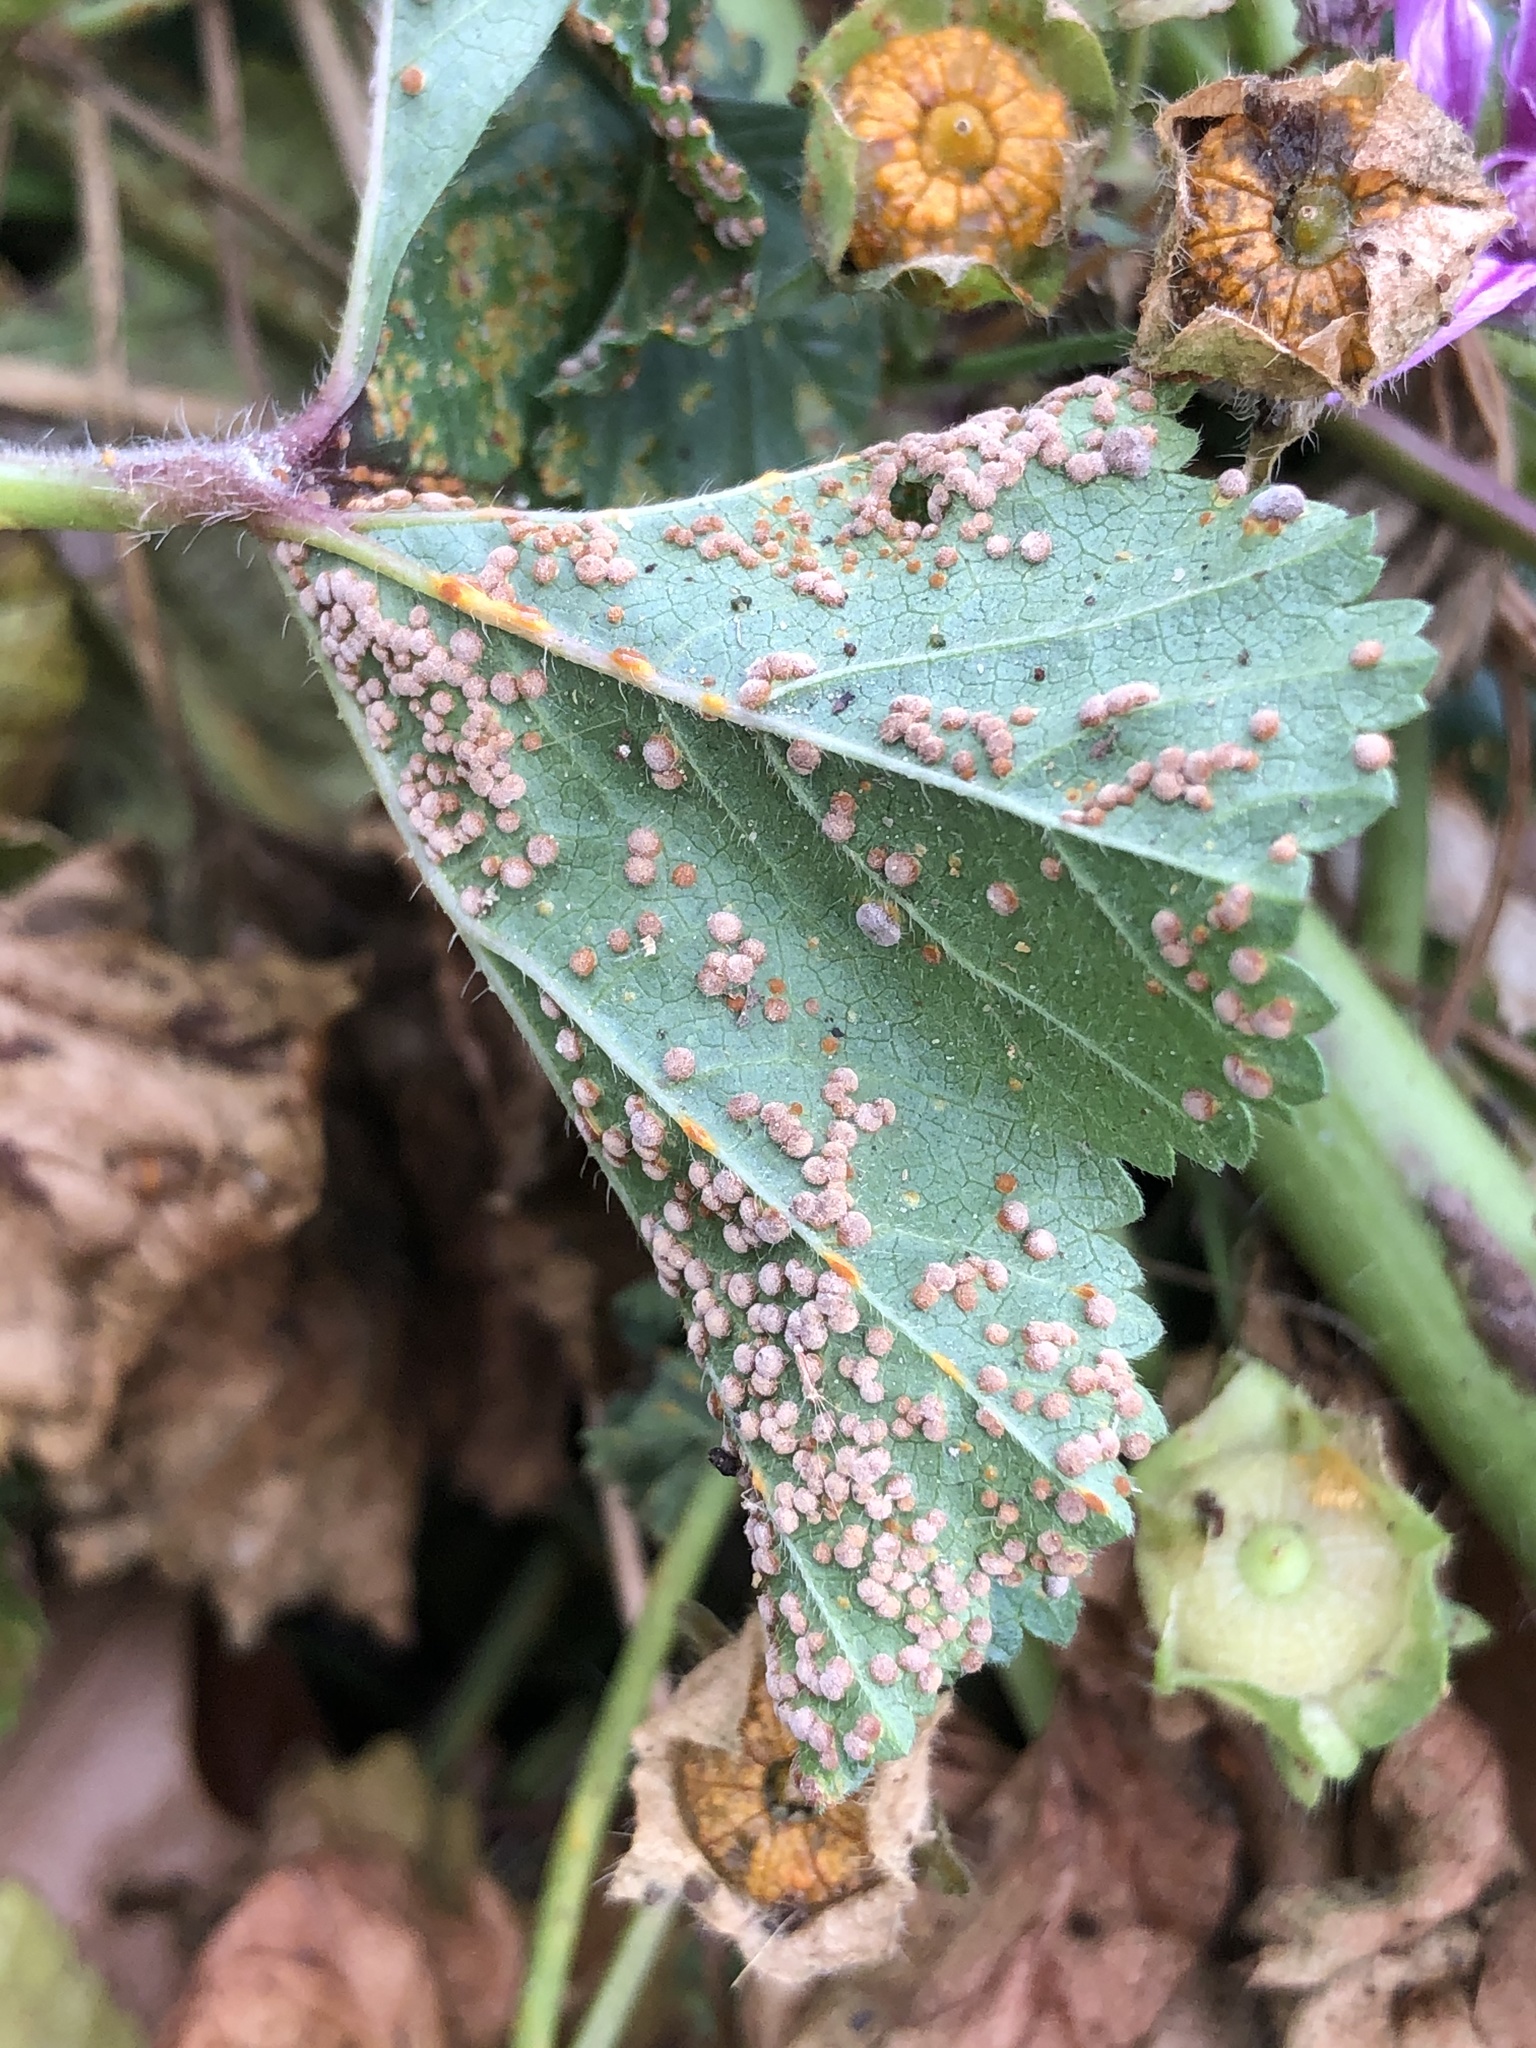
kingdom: Fungi
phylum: Basidiomycota
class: Pucciniomycetes
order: Pucciniales
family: Pucciniaceae
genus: Puccinia
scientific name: Puccinia malvacearum
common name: Hollyhock rust
